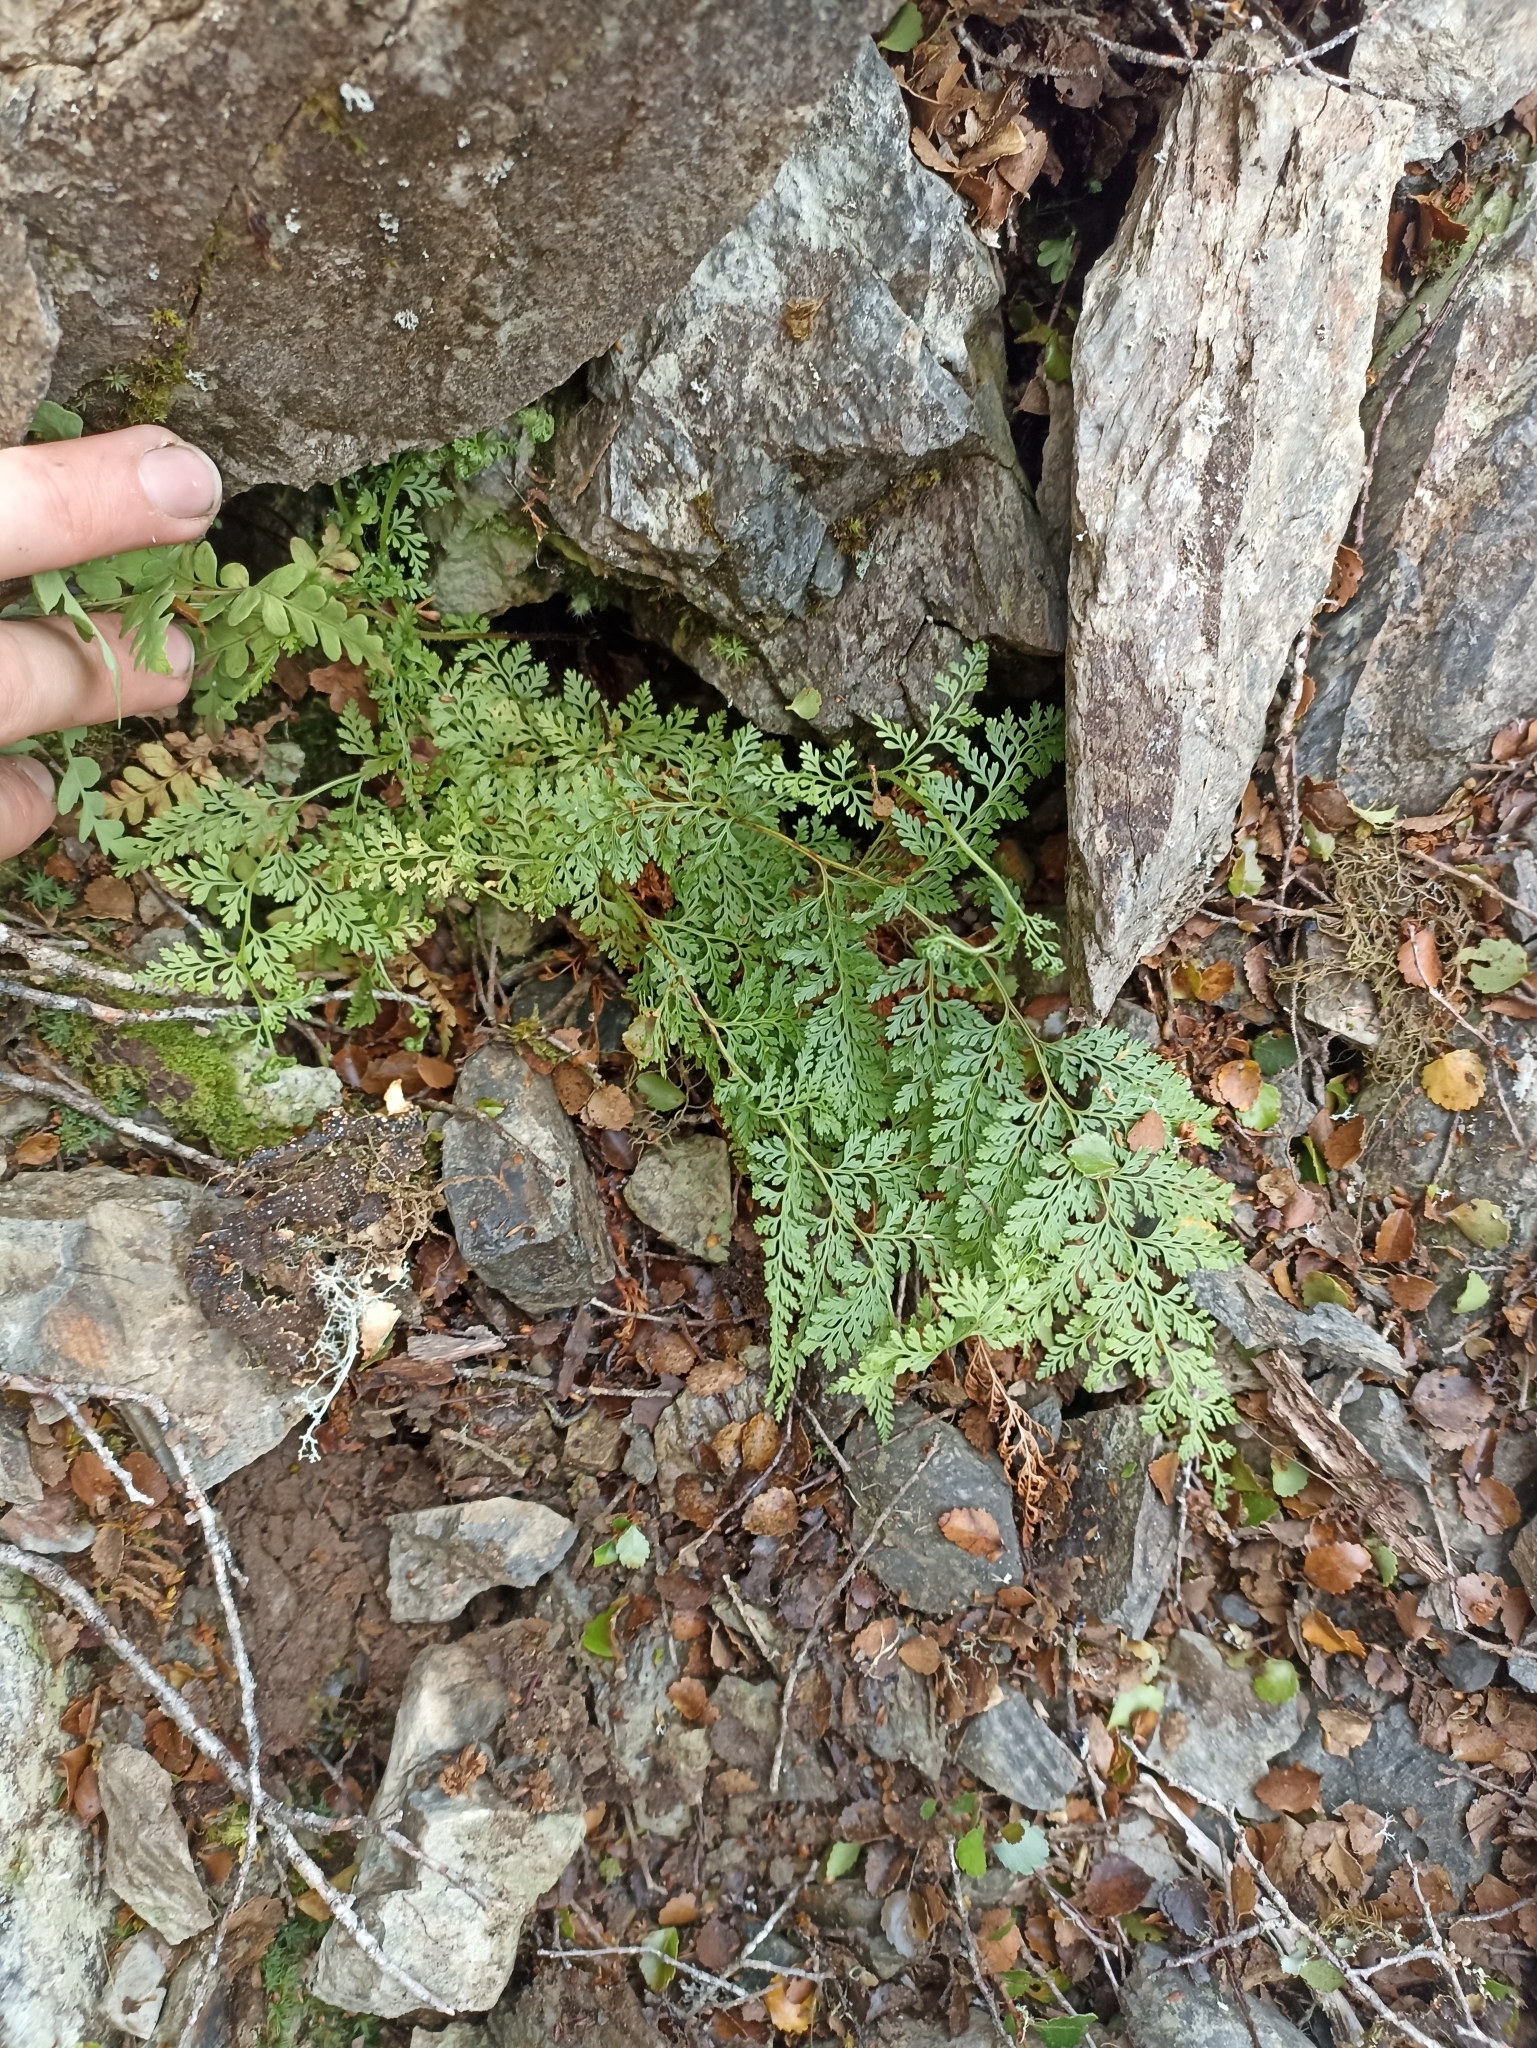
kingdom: Plantae
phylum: Tracheophyta
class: Polypodiopsida
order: Polypodiales
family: Dennstaedtiaceae
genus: Paesia
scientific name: Paesia scaberula
